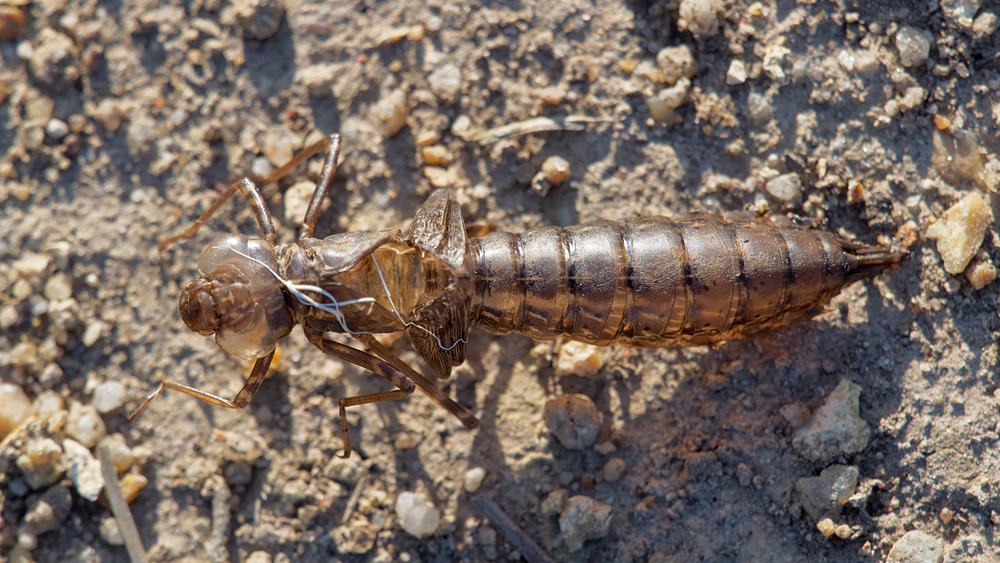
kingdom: Animalia
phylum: Arthropoda
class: Insecta
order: Odonata
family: Aeshnidae
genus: Anax
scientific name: Anax imperator
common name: Emperor dragonfly
